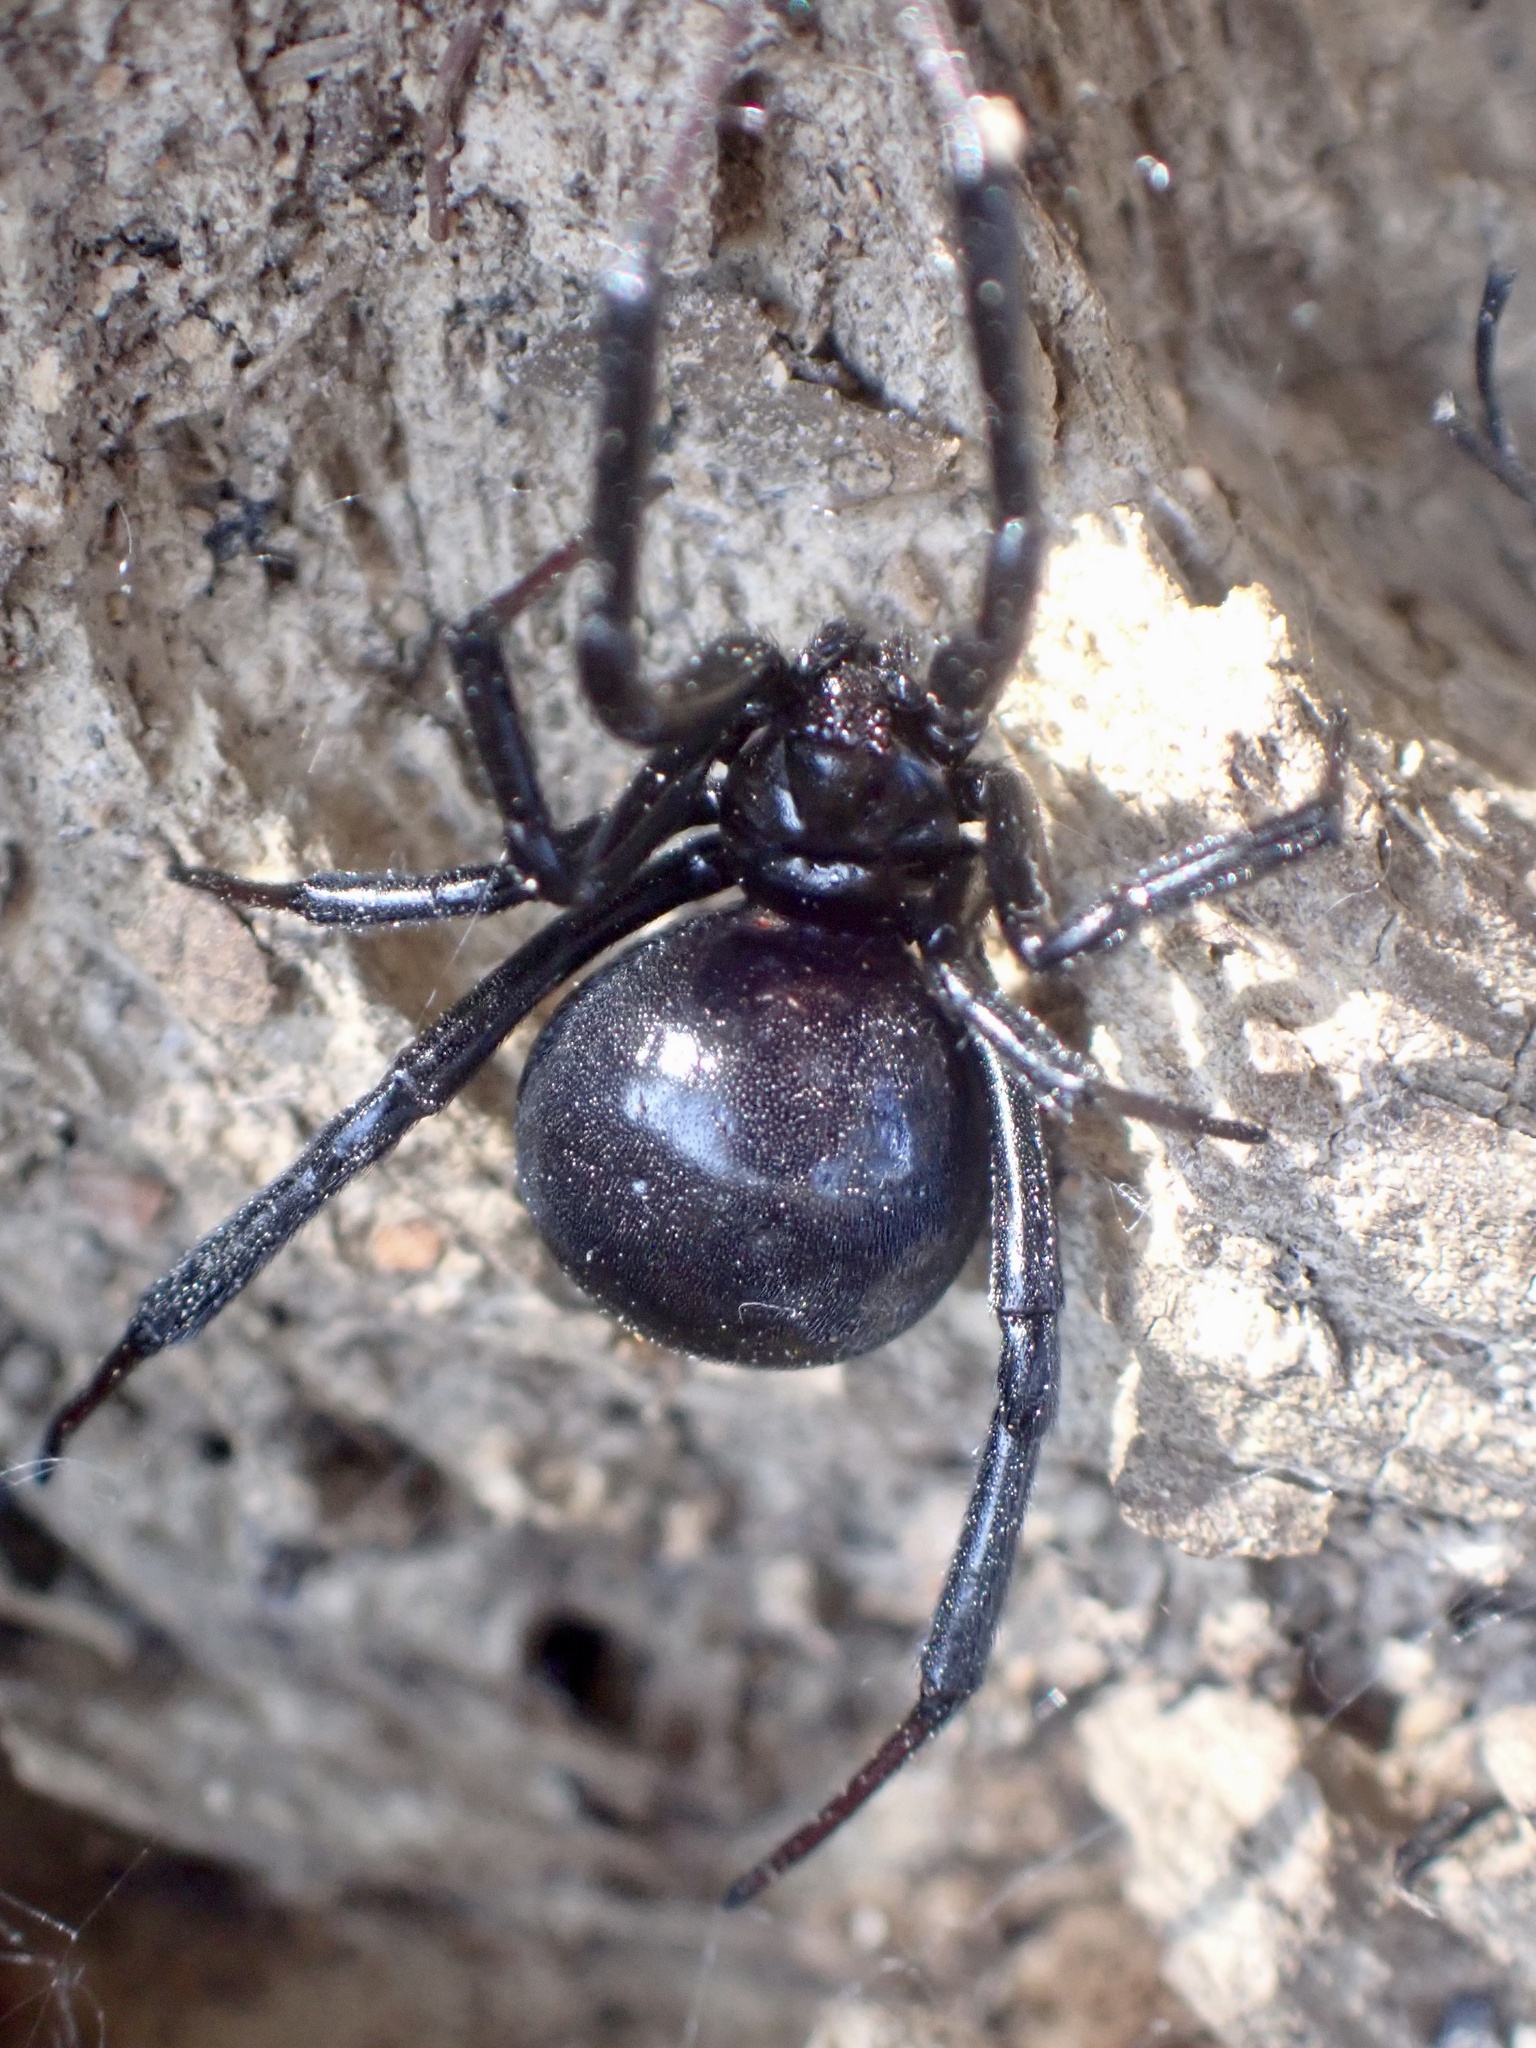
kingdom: Animalia
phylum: Arthropoda
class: Arachnida
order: Araneae
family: Theridiidae
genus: Latrodectus
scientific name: Latrodectus mactans
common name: Cobweb spiders
